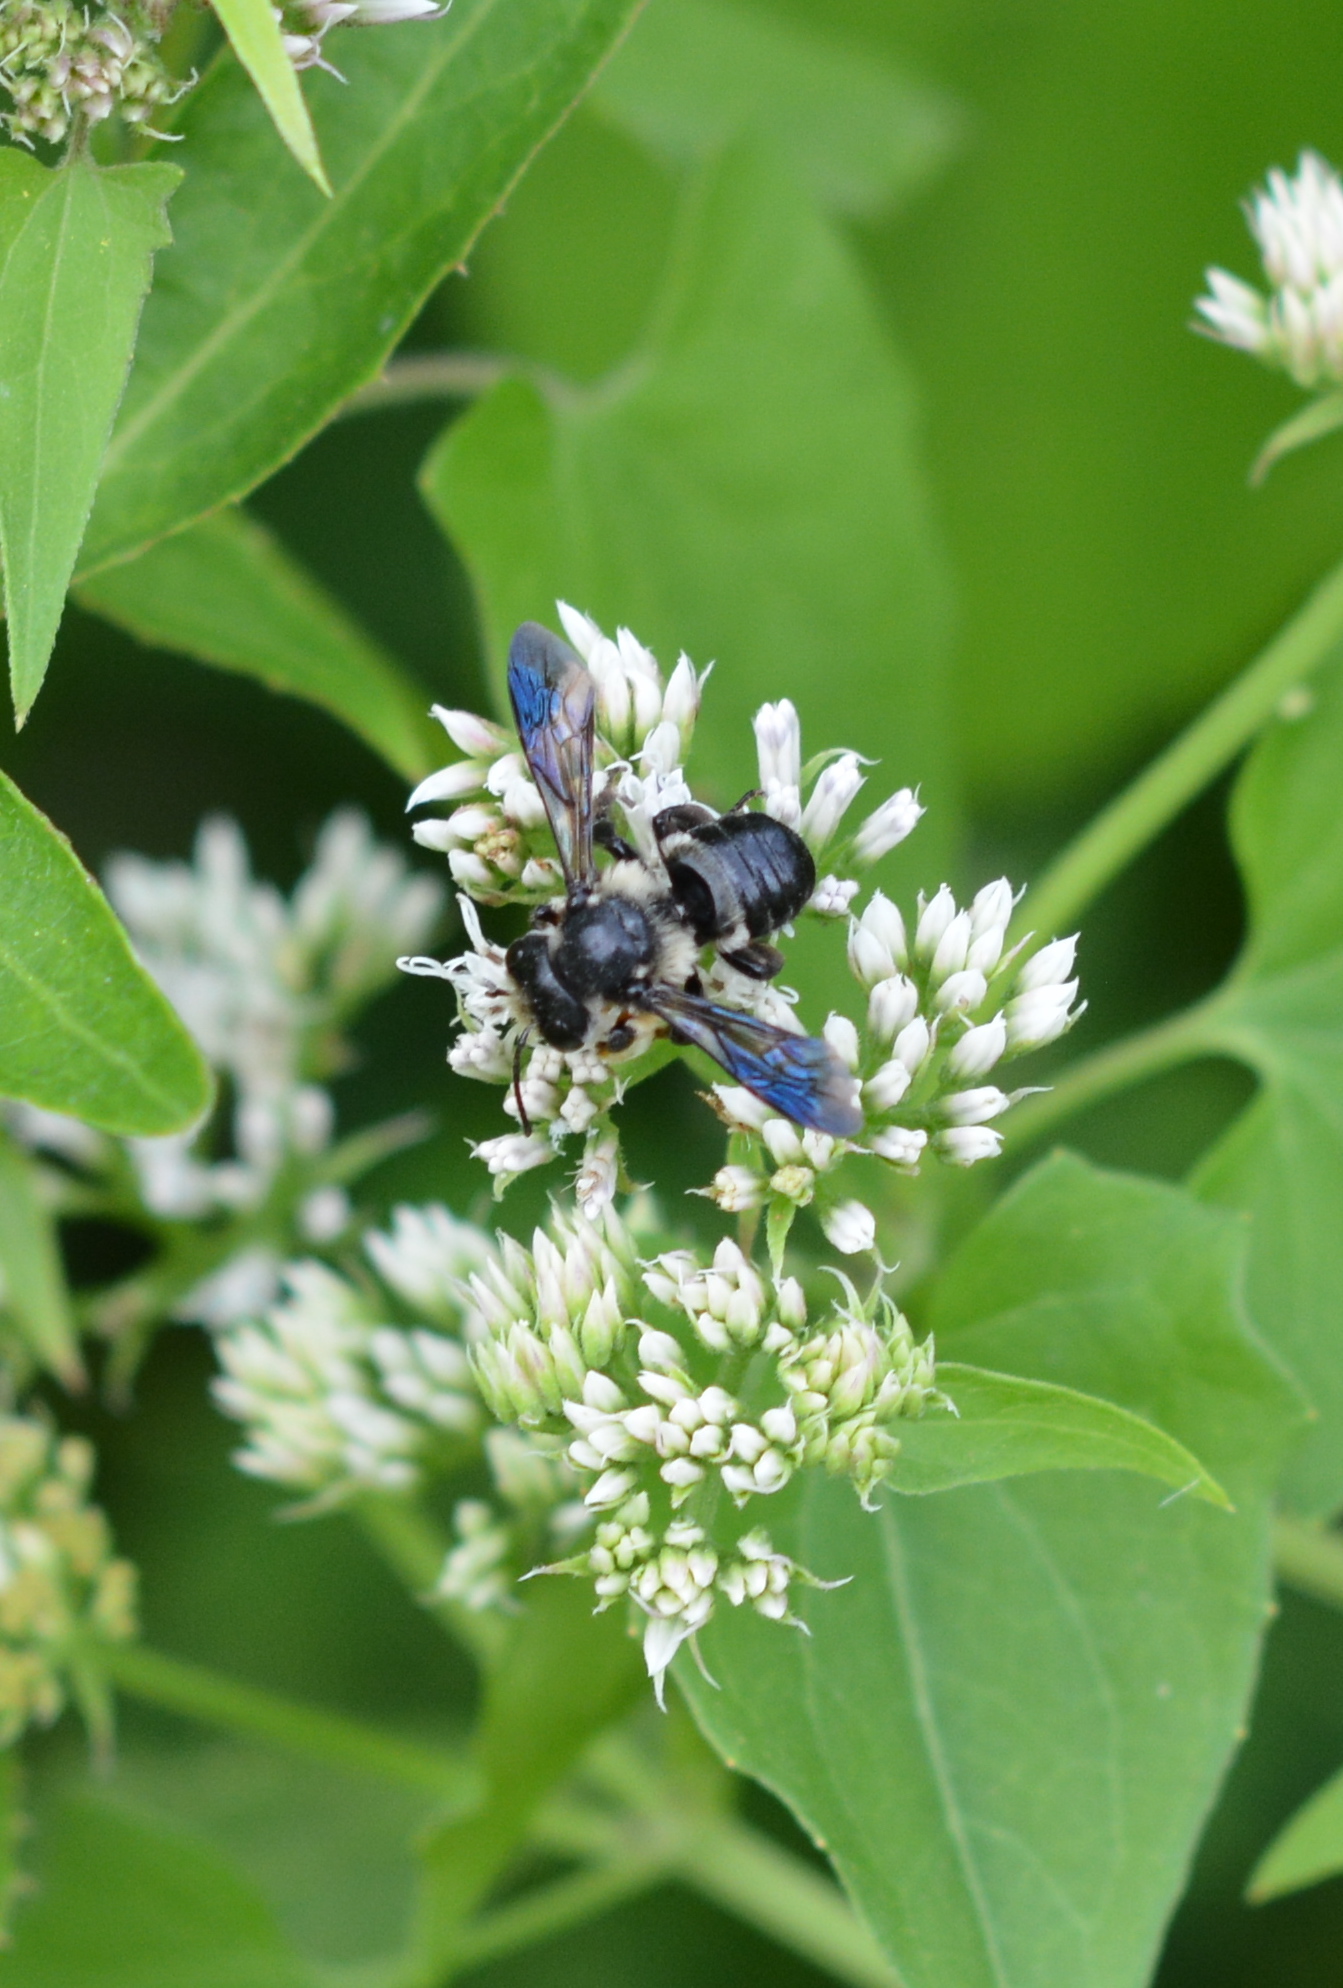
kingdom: Animalia
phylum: Arthropoda
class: Insecta
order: Hymenoptera
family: Megachilidae
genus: Megachile
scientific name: Megachile xylocopoides
